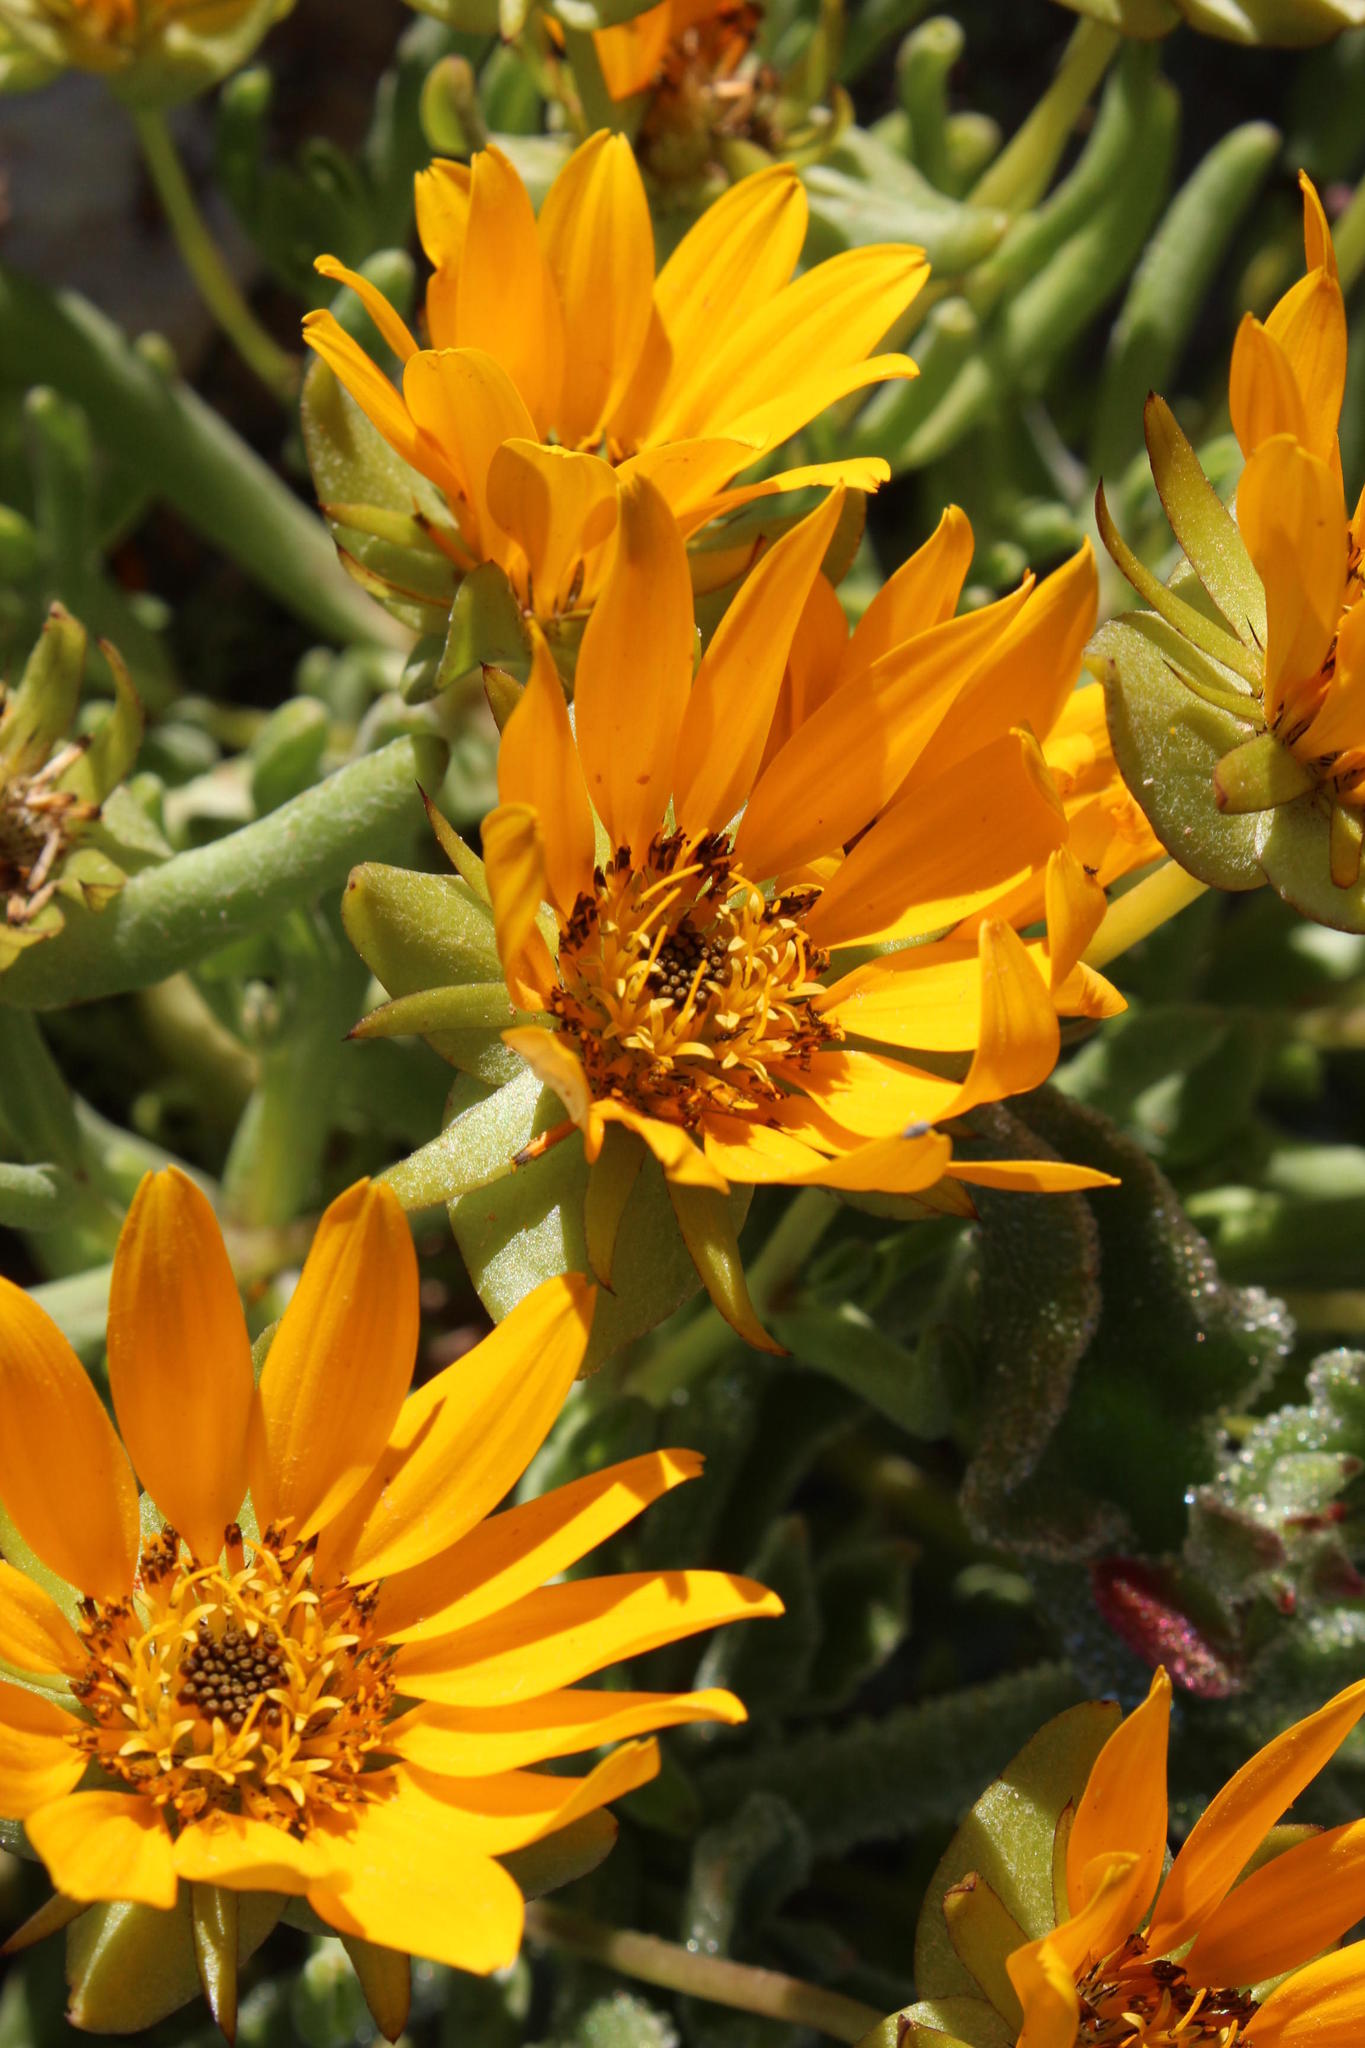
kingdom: Plantae
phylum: Tracheophyta
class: Magnoliopsida
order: Asterales
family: Asteraceae
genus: Didelta
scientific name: Didelta carnosa
